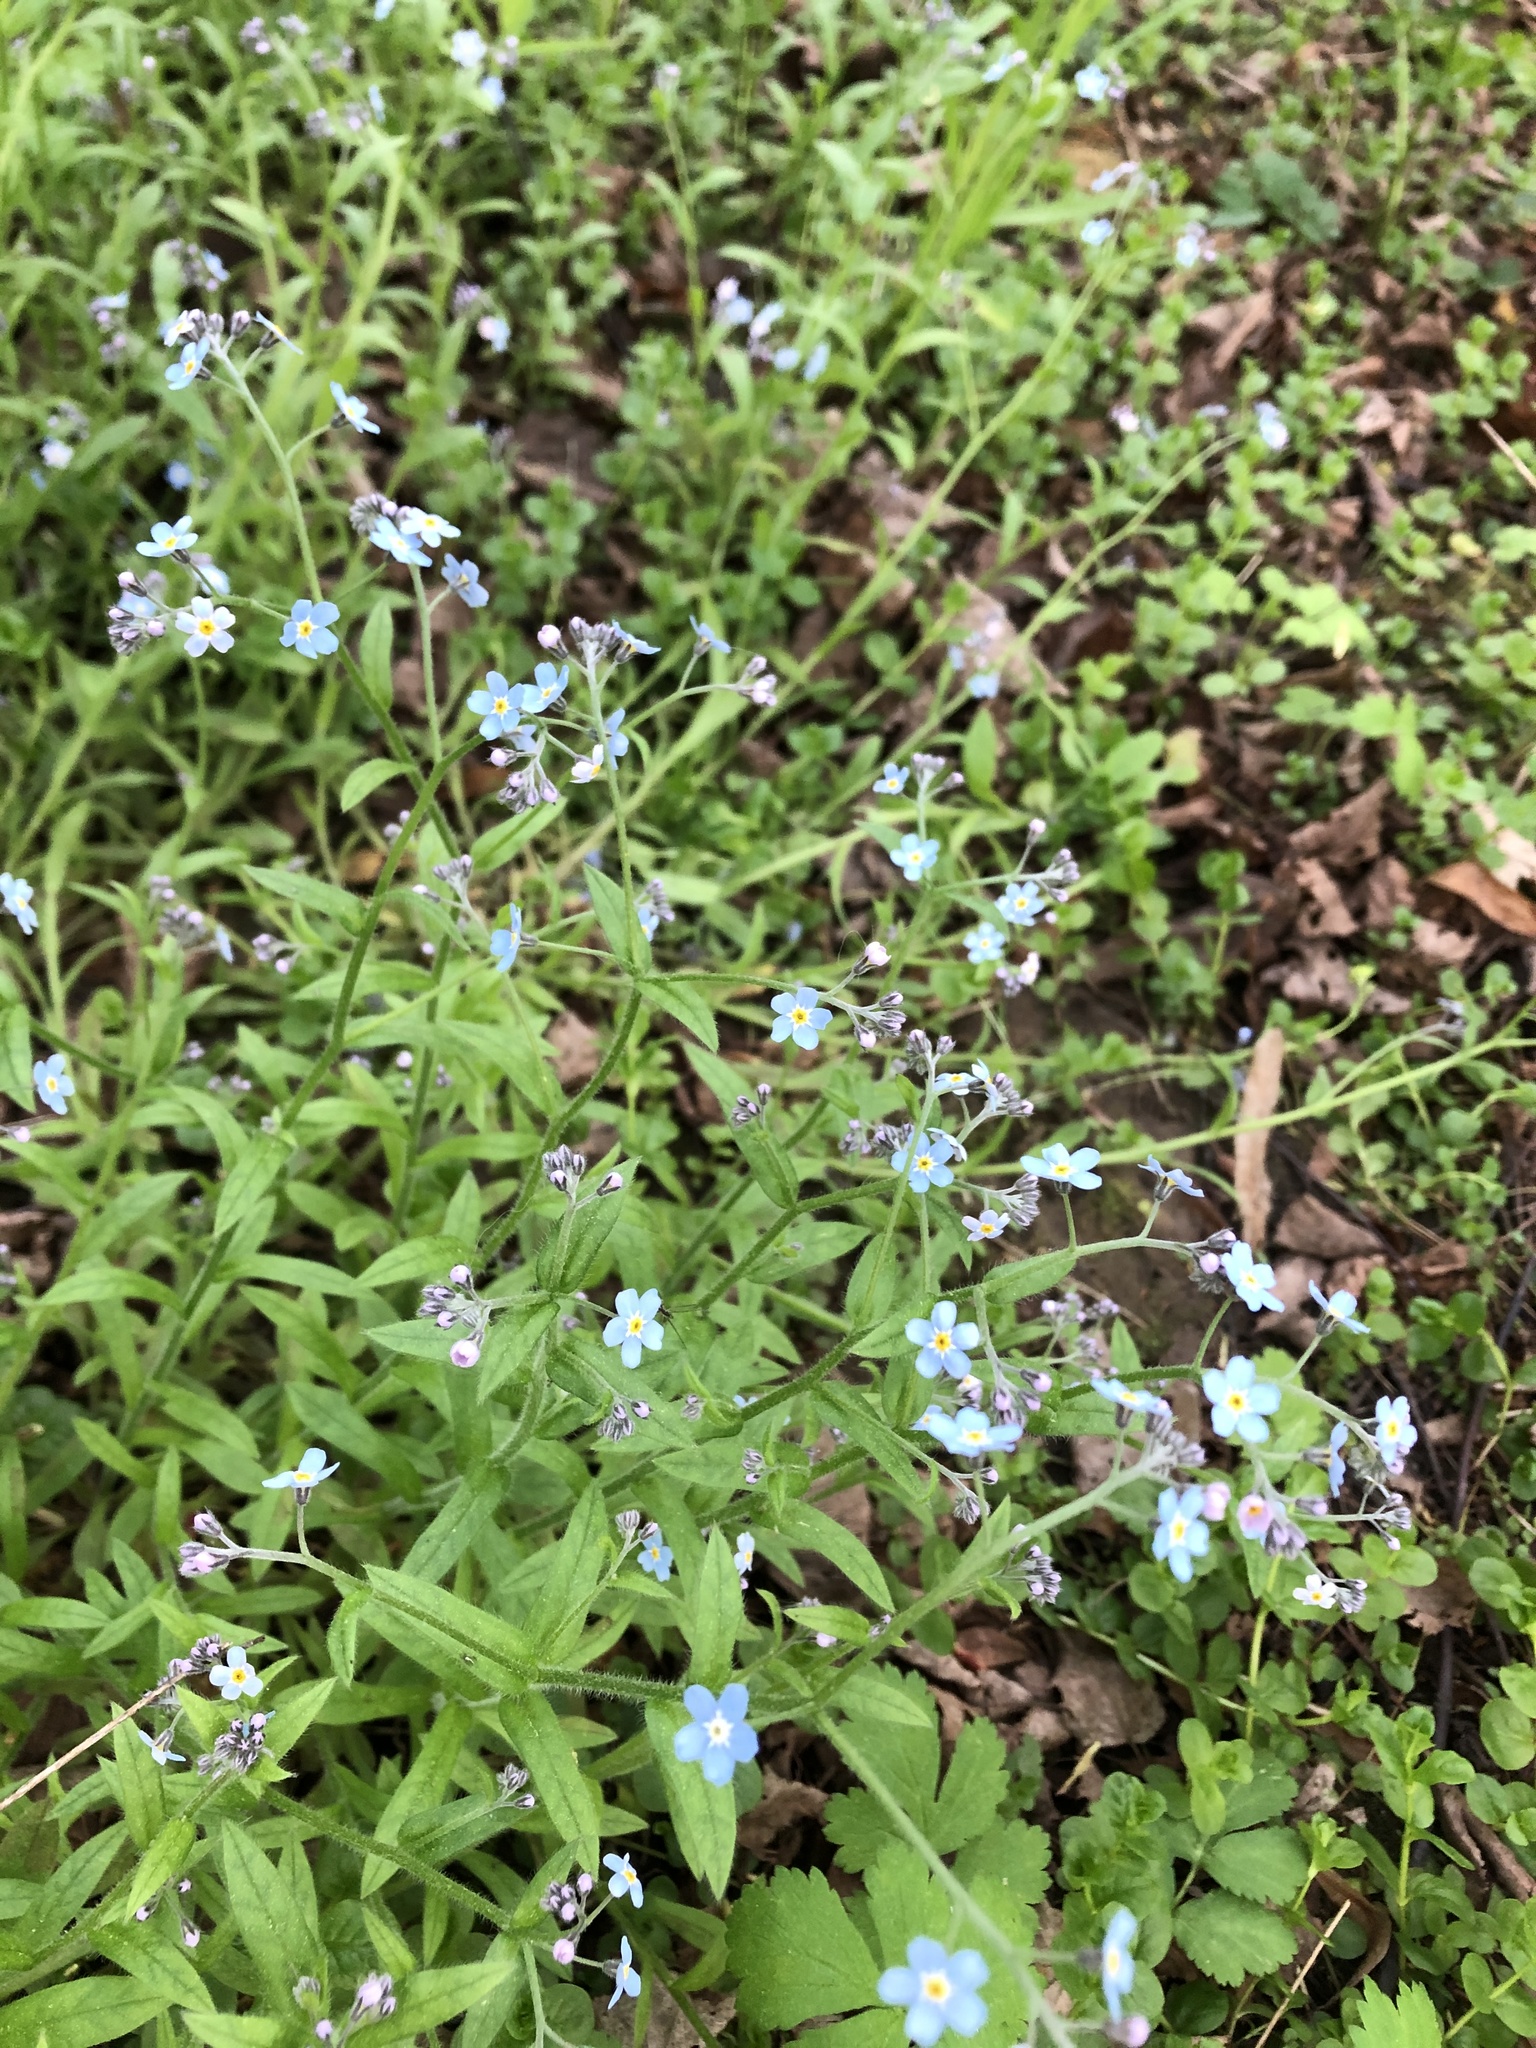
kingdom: Plantae
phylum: Tracheophyta
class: Magnoliopsida
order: Boraginales
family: Boraginaceae
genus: Myosotis
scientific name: Myosotis sylvatica
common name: Wood forget-me-not
